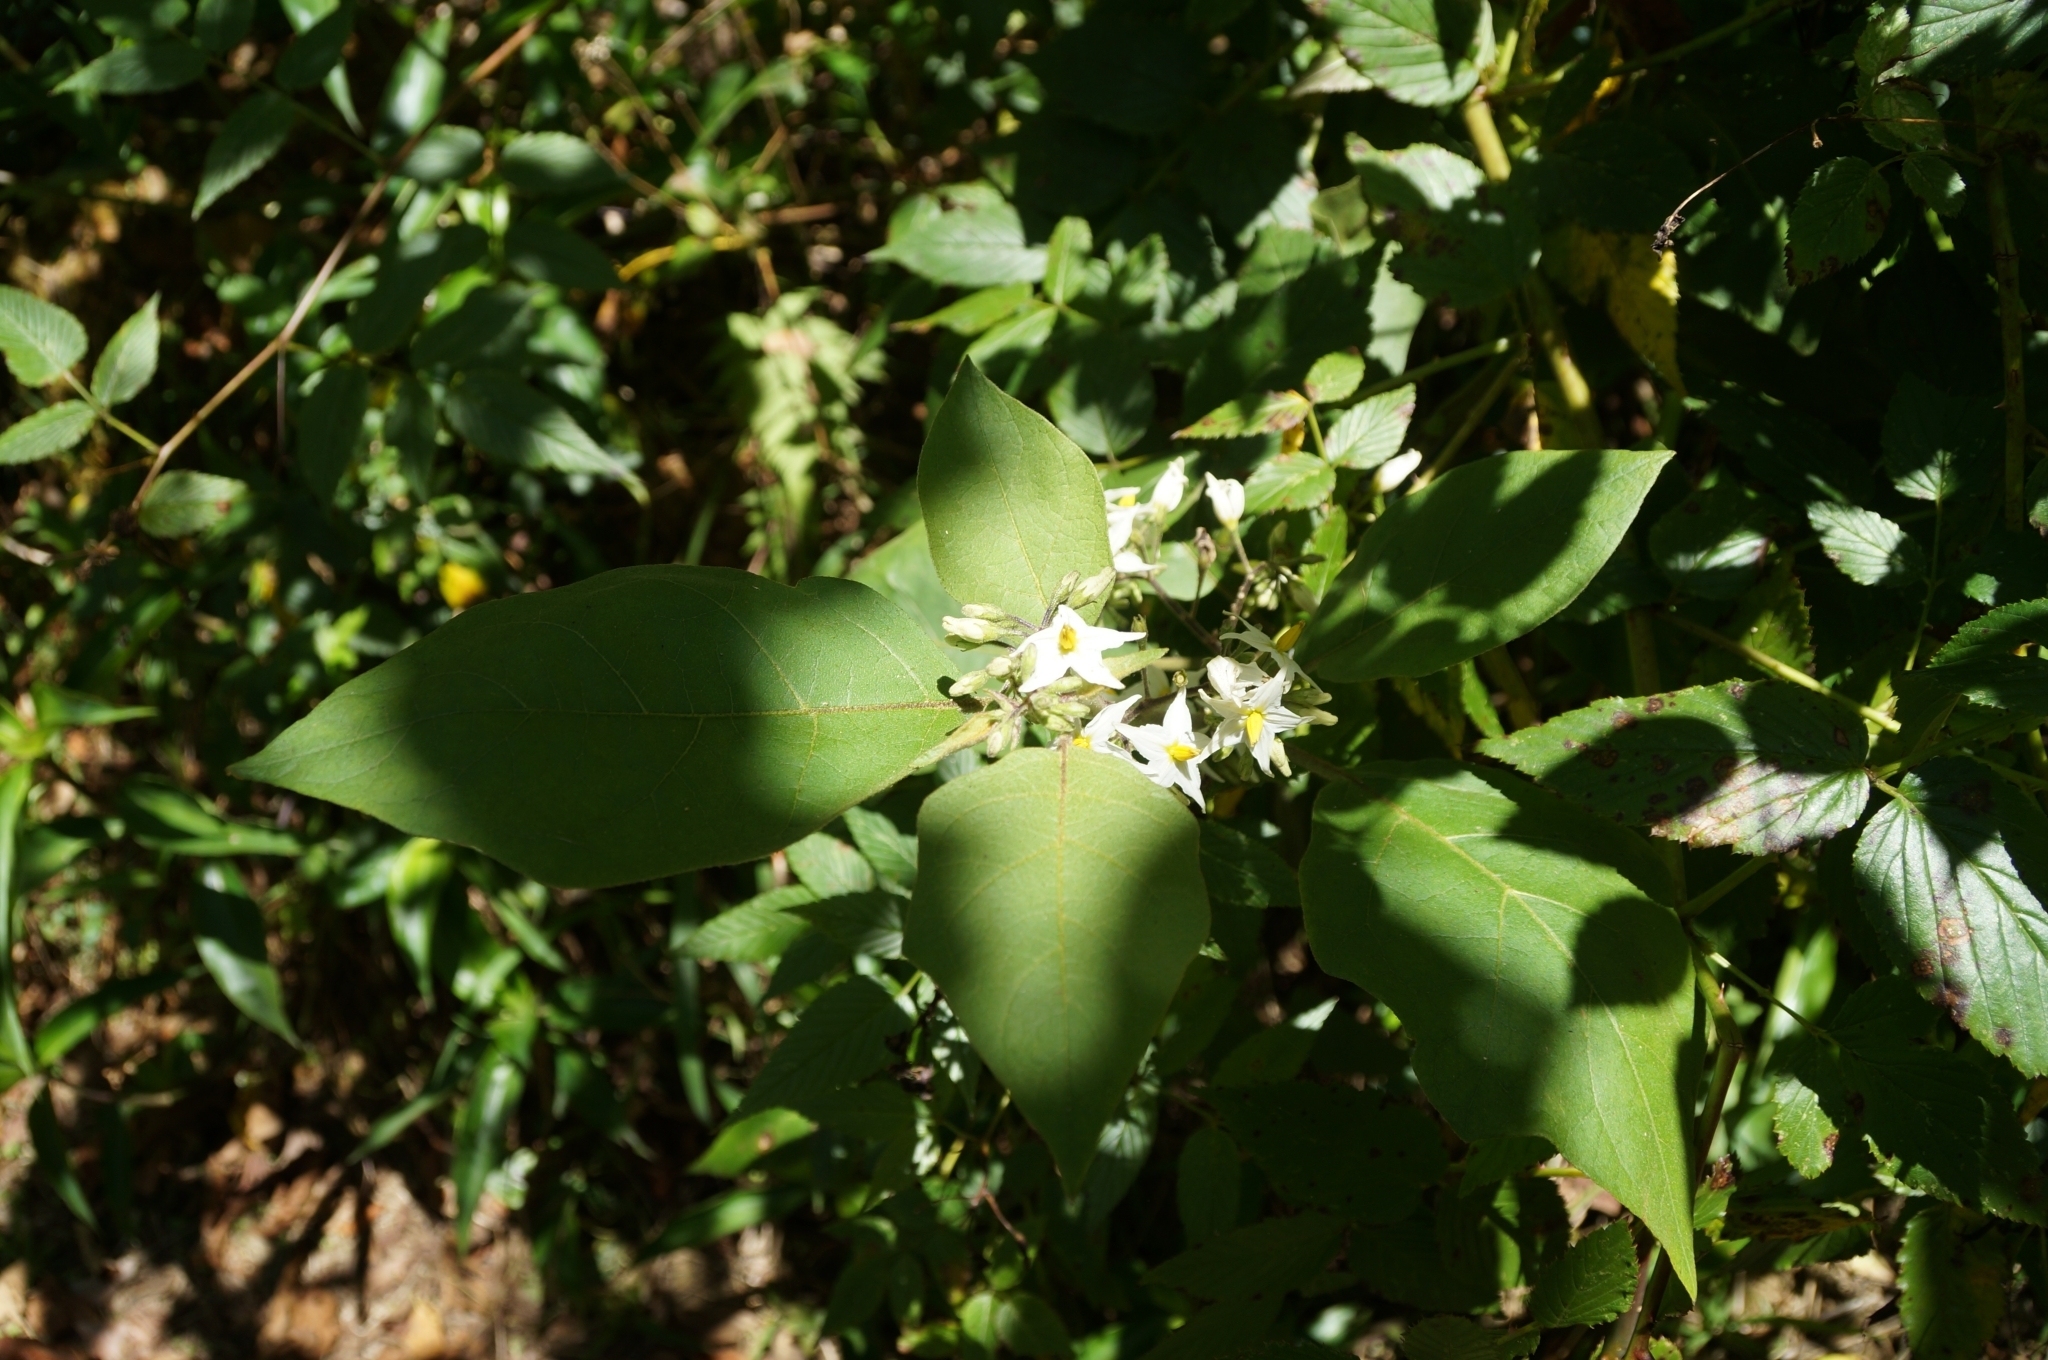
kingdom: Plantae
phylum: Tracheophyta
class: Magnoliopsida
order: Solanales
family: Solanaceae
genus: Solanum
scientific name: Solanum torvum
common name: Turkey berry
